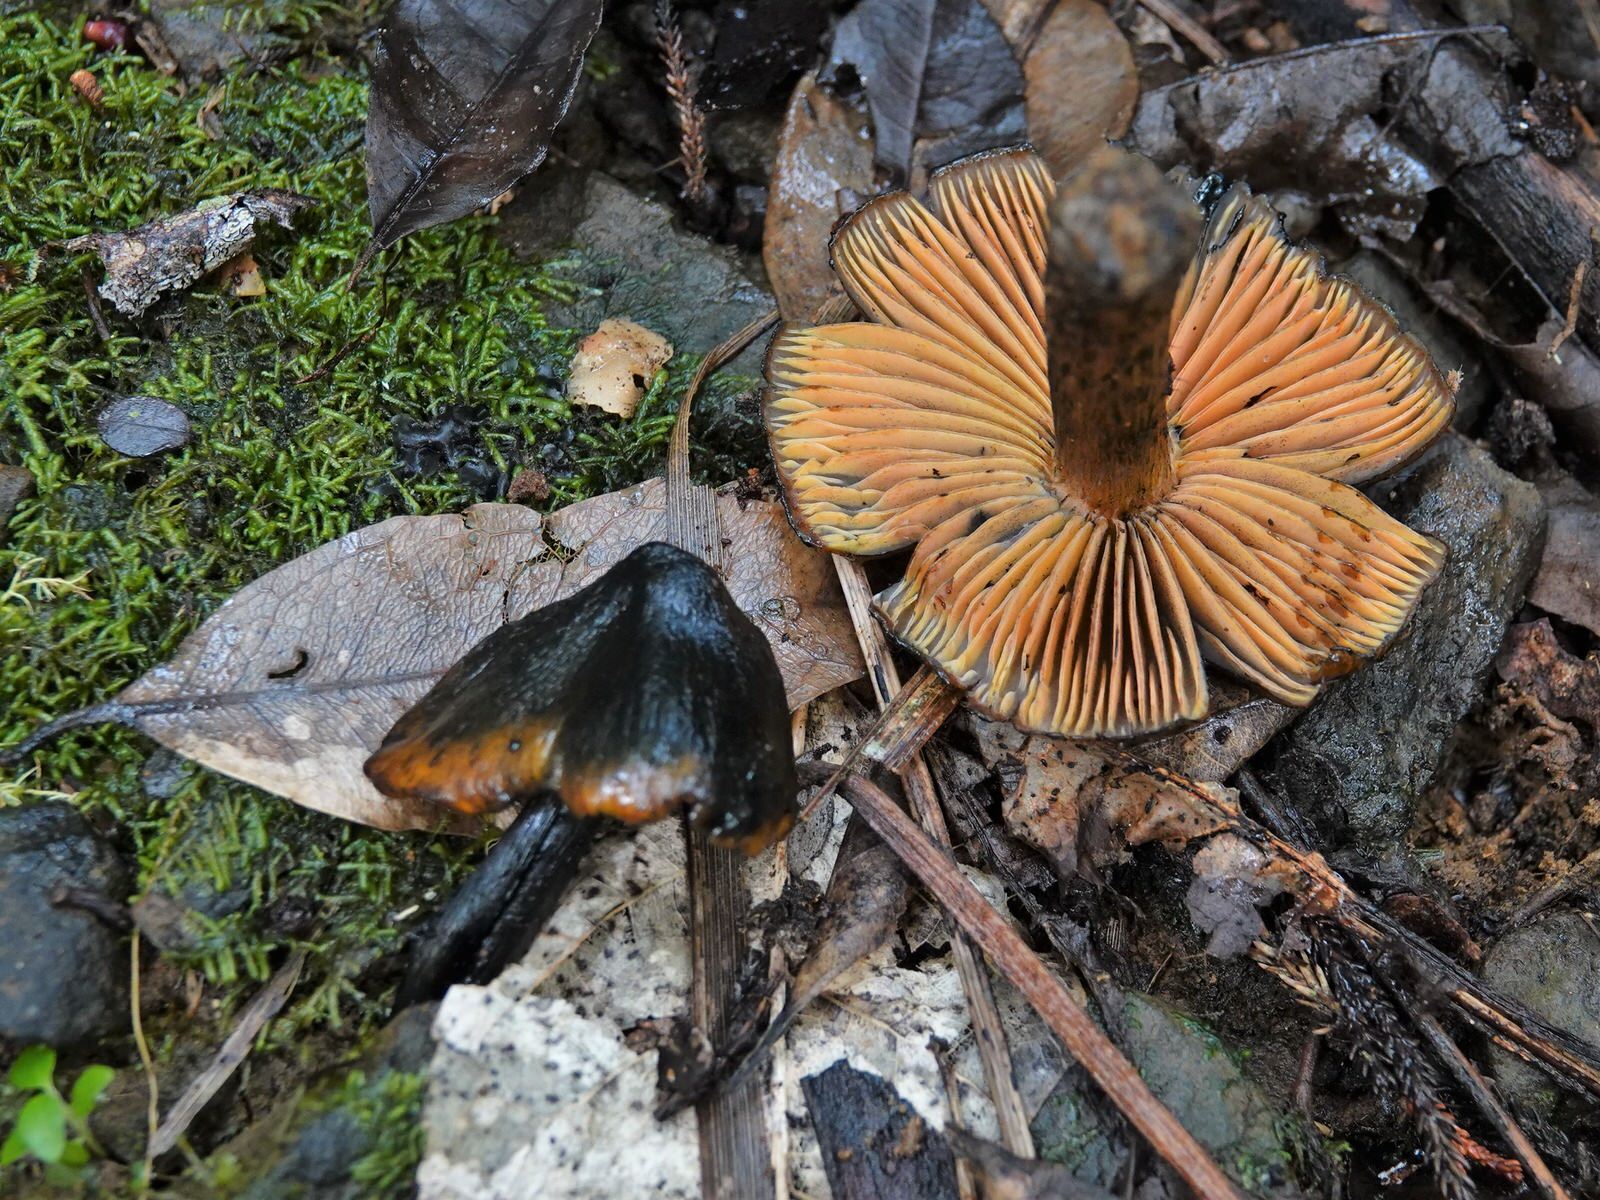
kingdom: Fungi
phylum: Basidiomycota
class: Agaricomycetes
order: Agaricales
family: Hygrophoraceae
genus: Hygrocybe
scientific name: Hygrocybe astatogala
